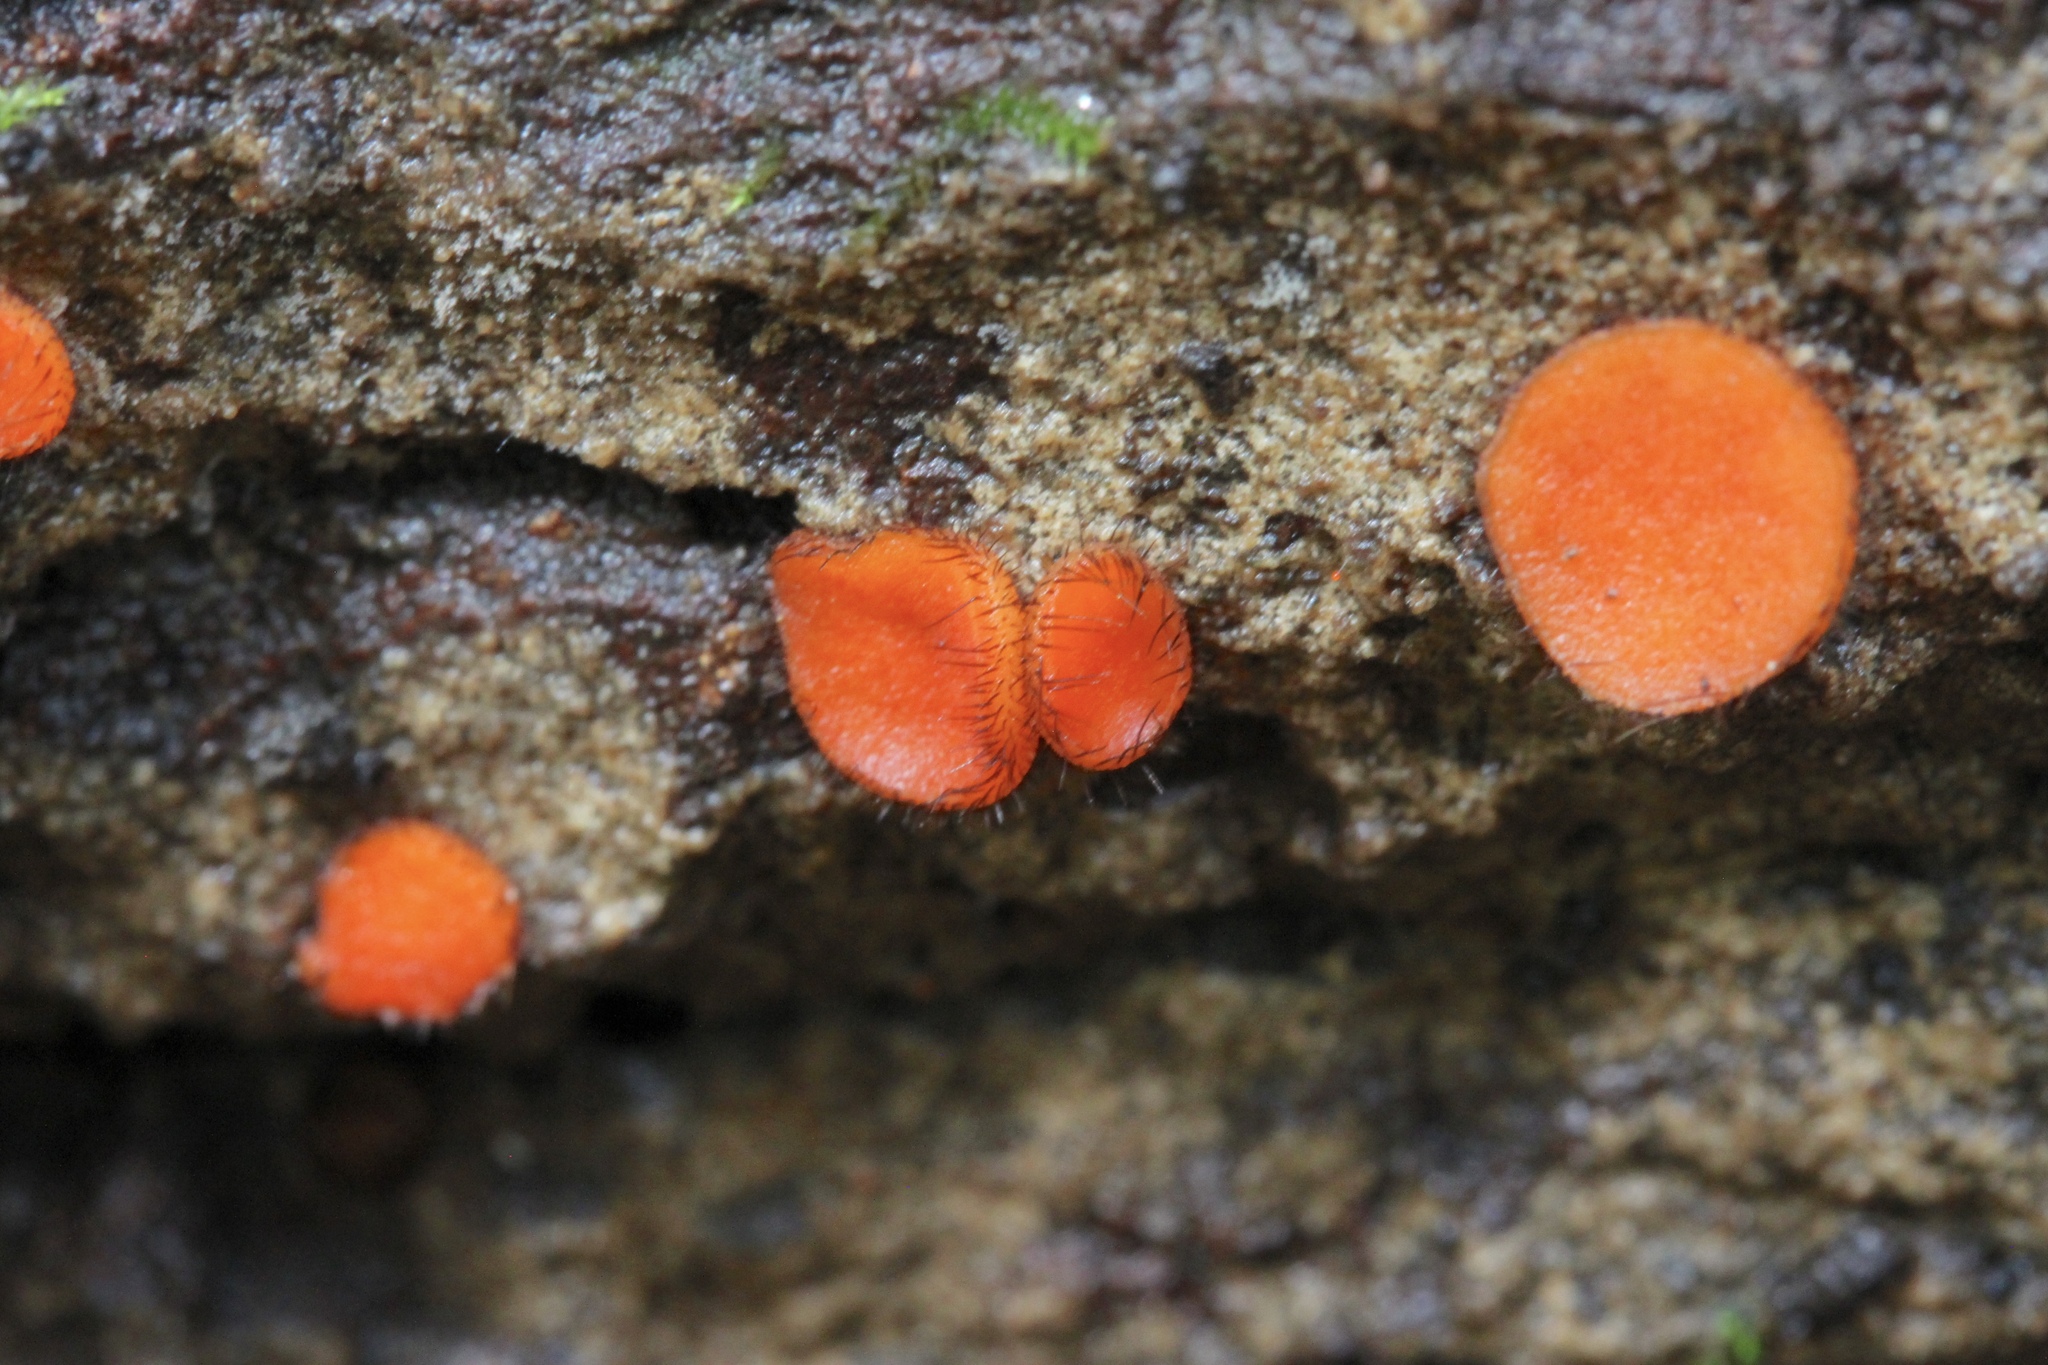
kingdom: Fungi
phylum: Ascomycota
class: Pezizomycetes
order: Pezizales
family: Pyronemataceae
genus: Scutellinia
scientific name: Scutellinia scutellata
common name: Common eyelash
